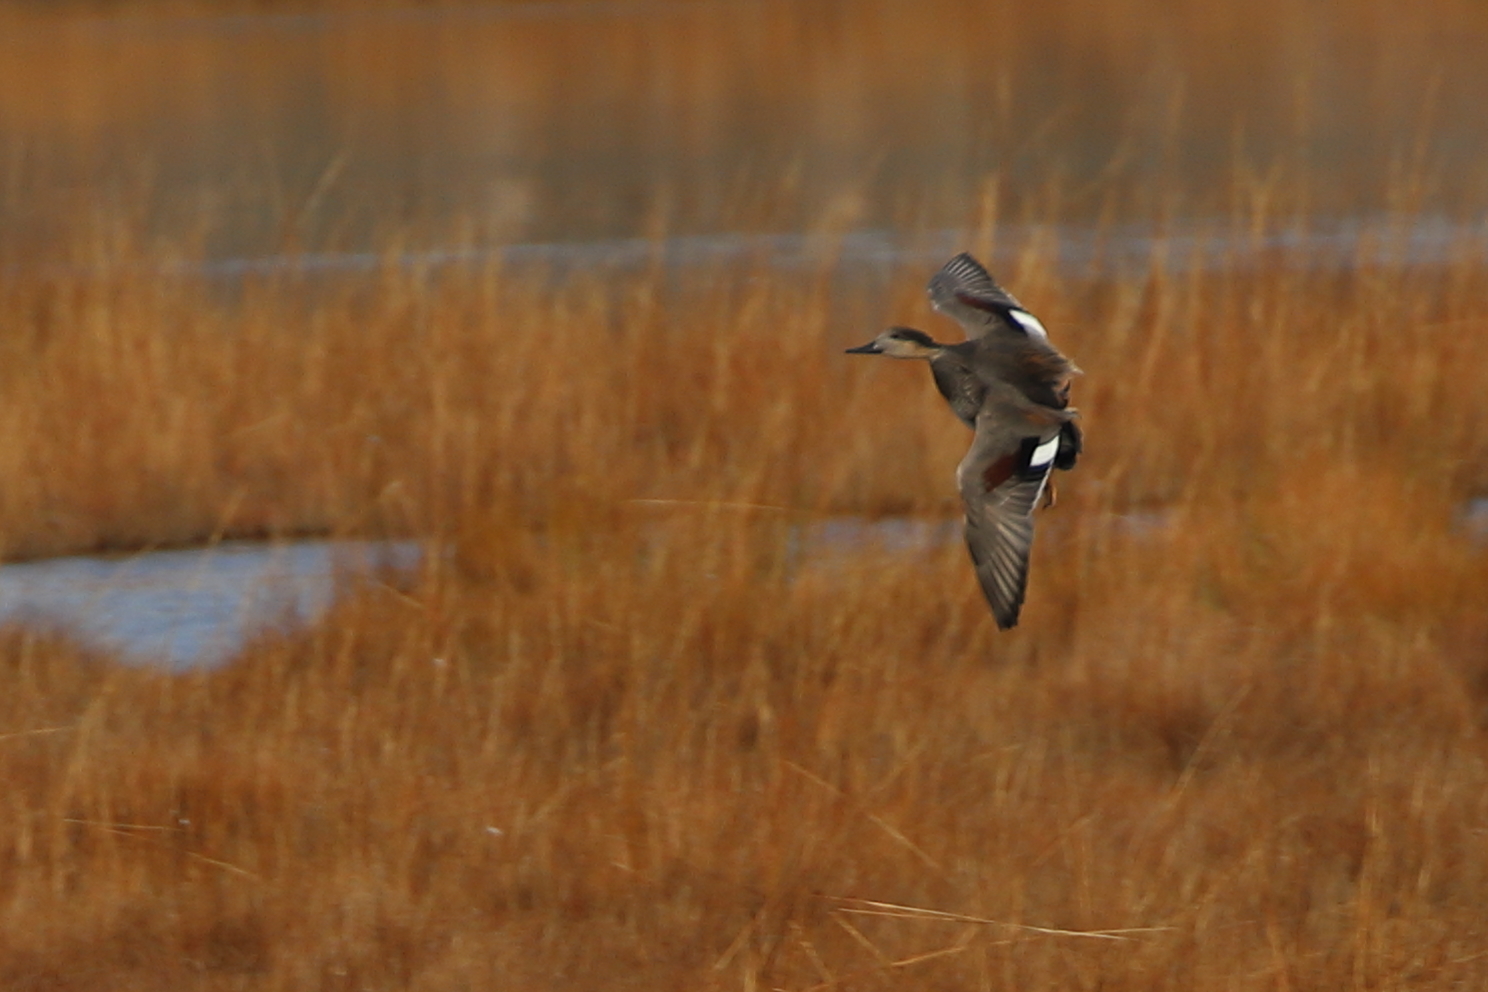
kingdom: Animalia
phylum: Chordata
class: Aves
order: Anseriformes
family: Anatidae
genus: Mareca
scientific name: Mareca strepera
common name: Gadwall
